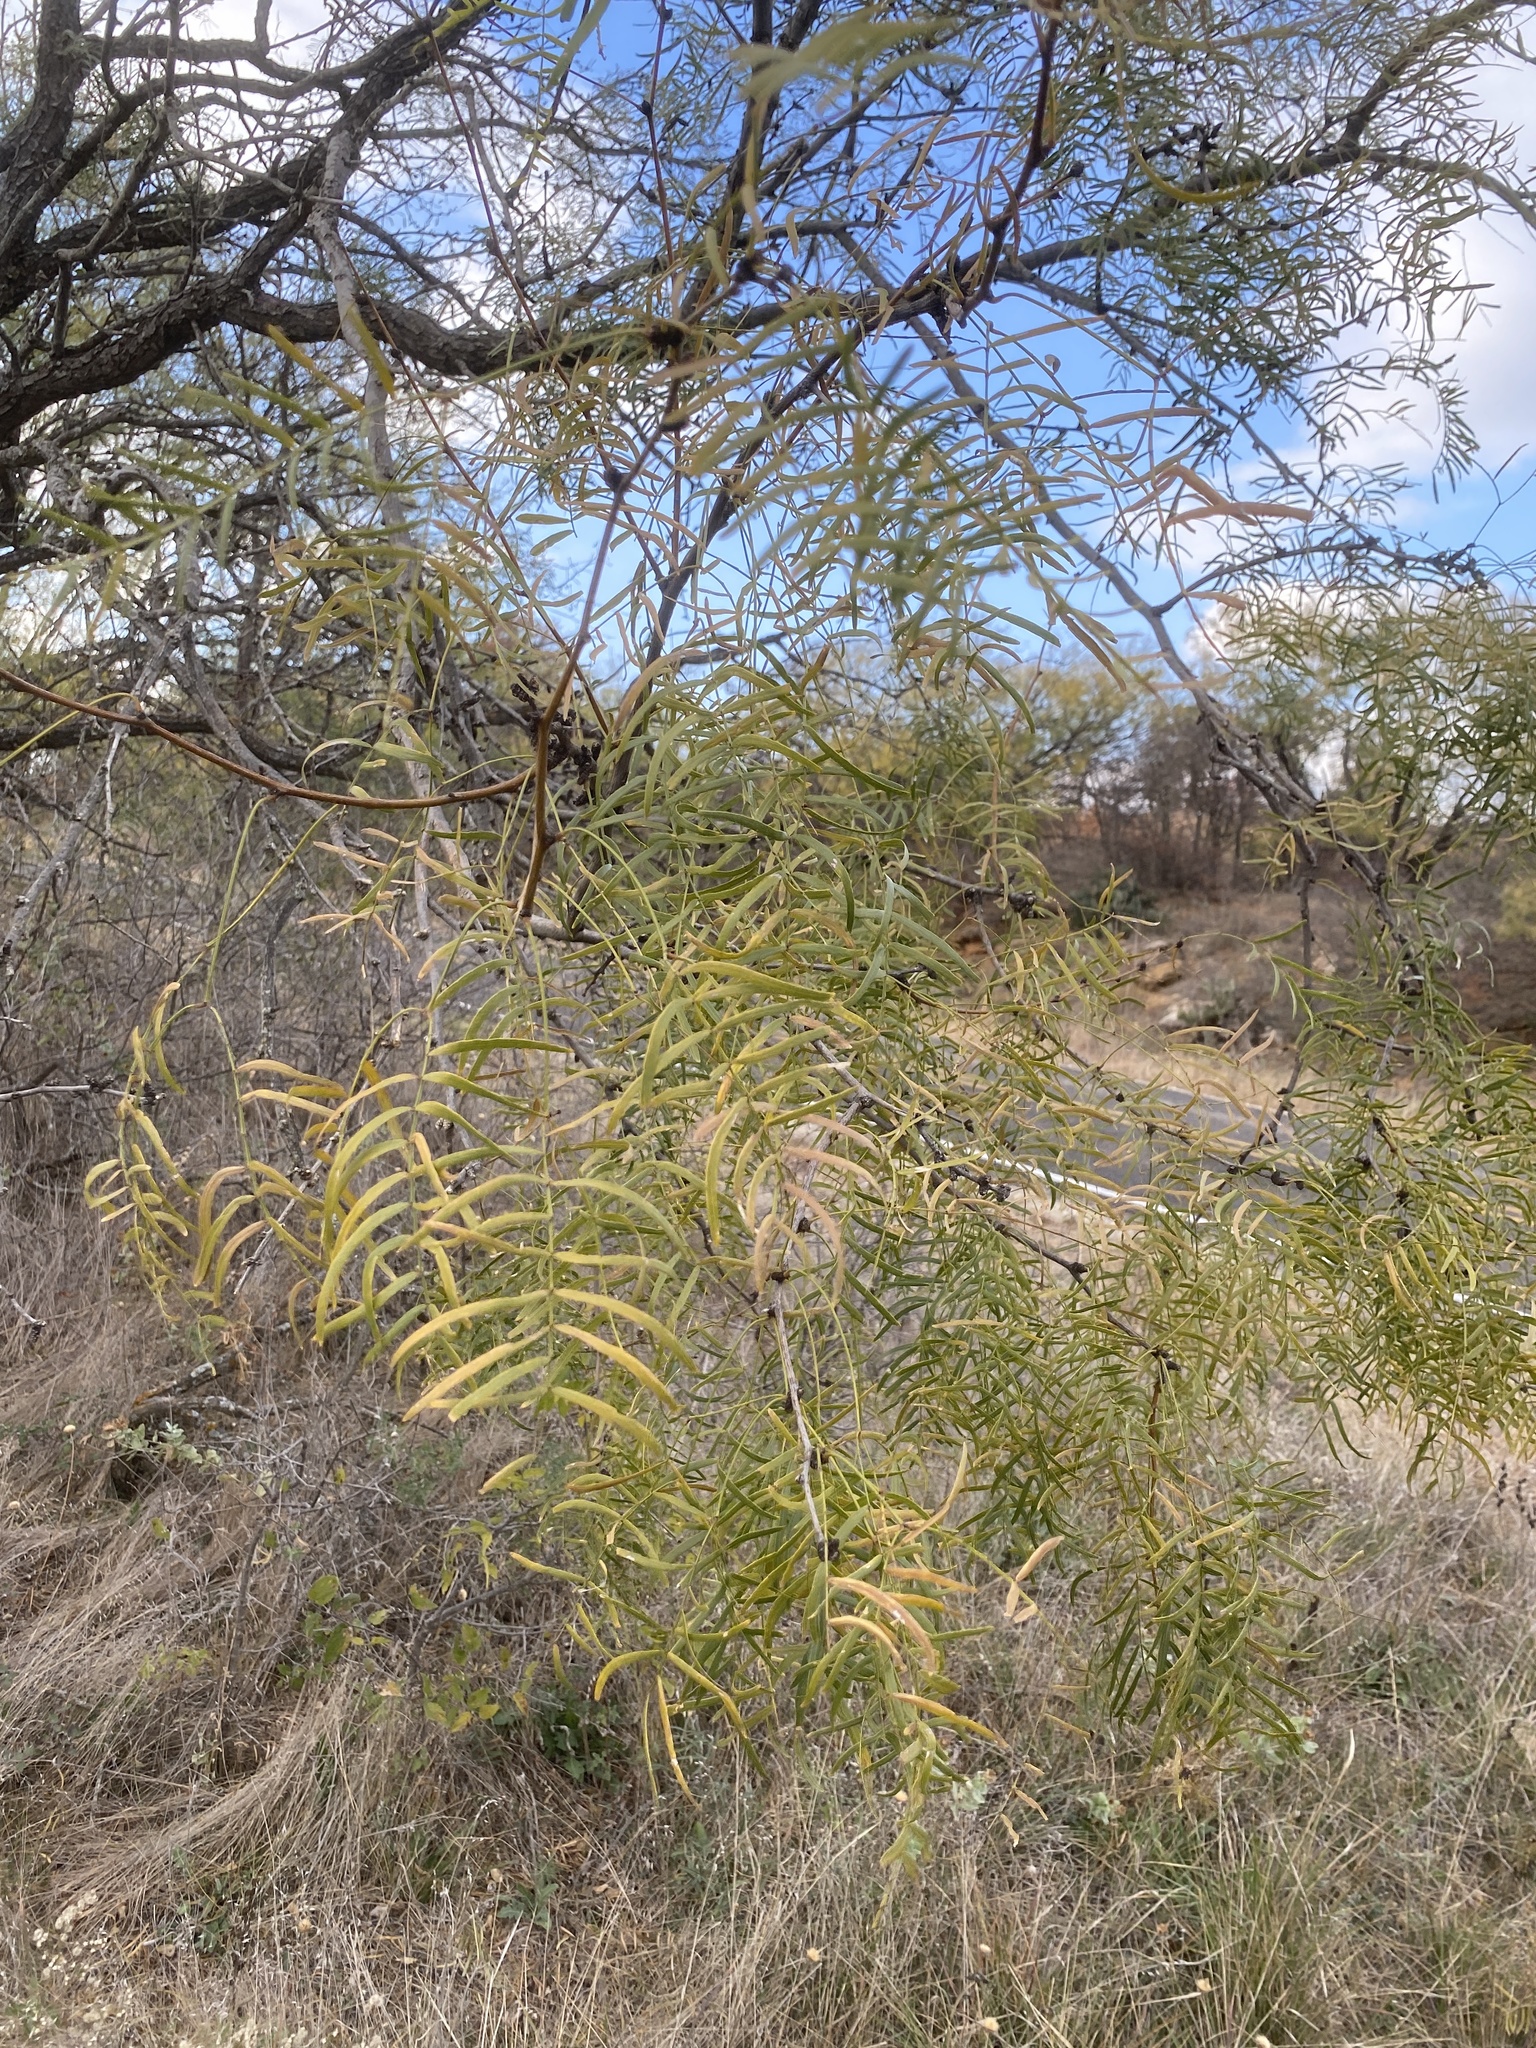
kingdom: Plantae
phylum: Tracheophyta
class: Magnoliopsida
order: Fabales
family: Fabaceae
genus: Prosopis
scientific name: Prosopis glandulosa
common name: Honey mesquite
